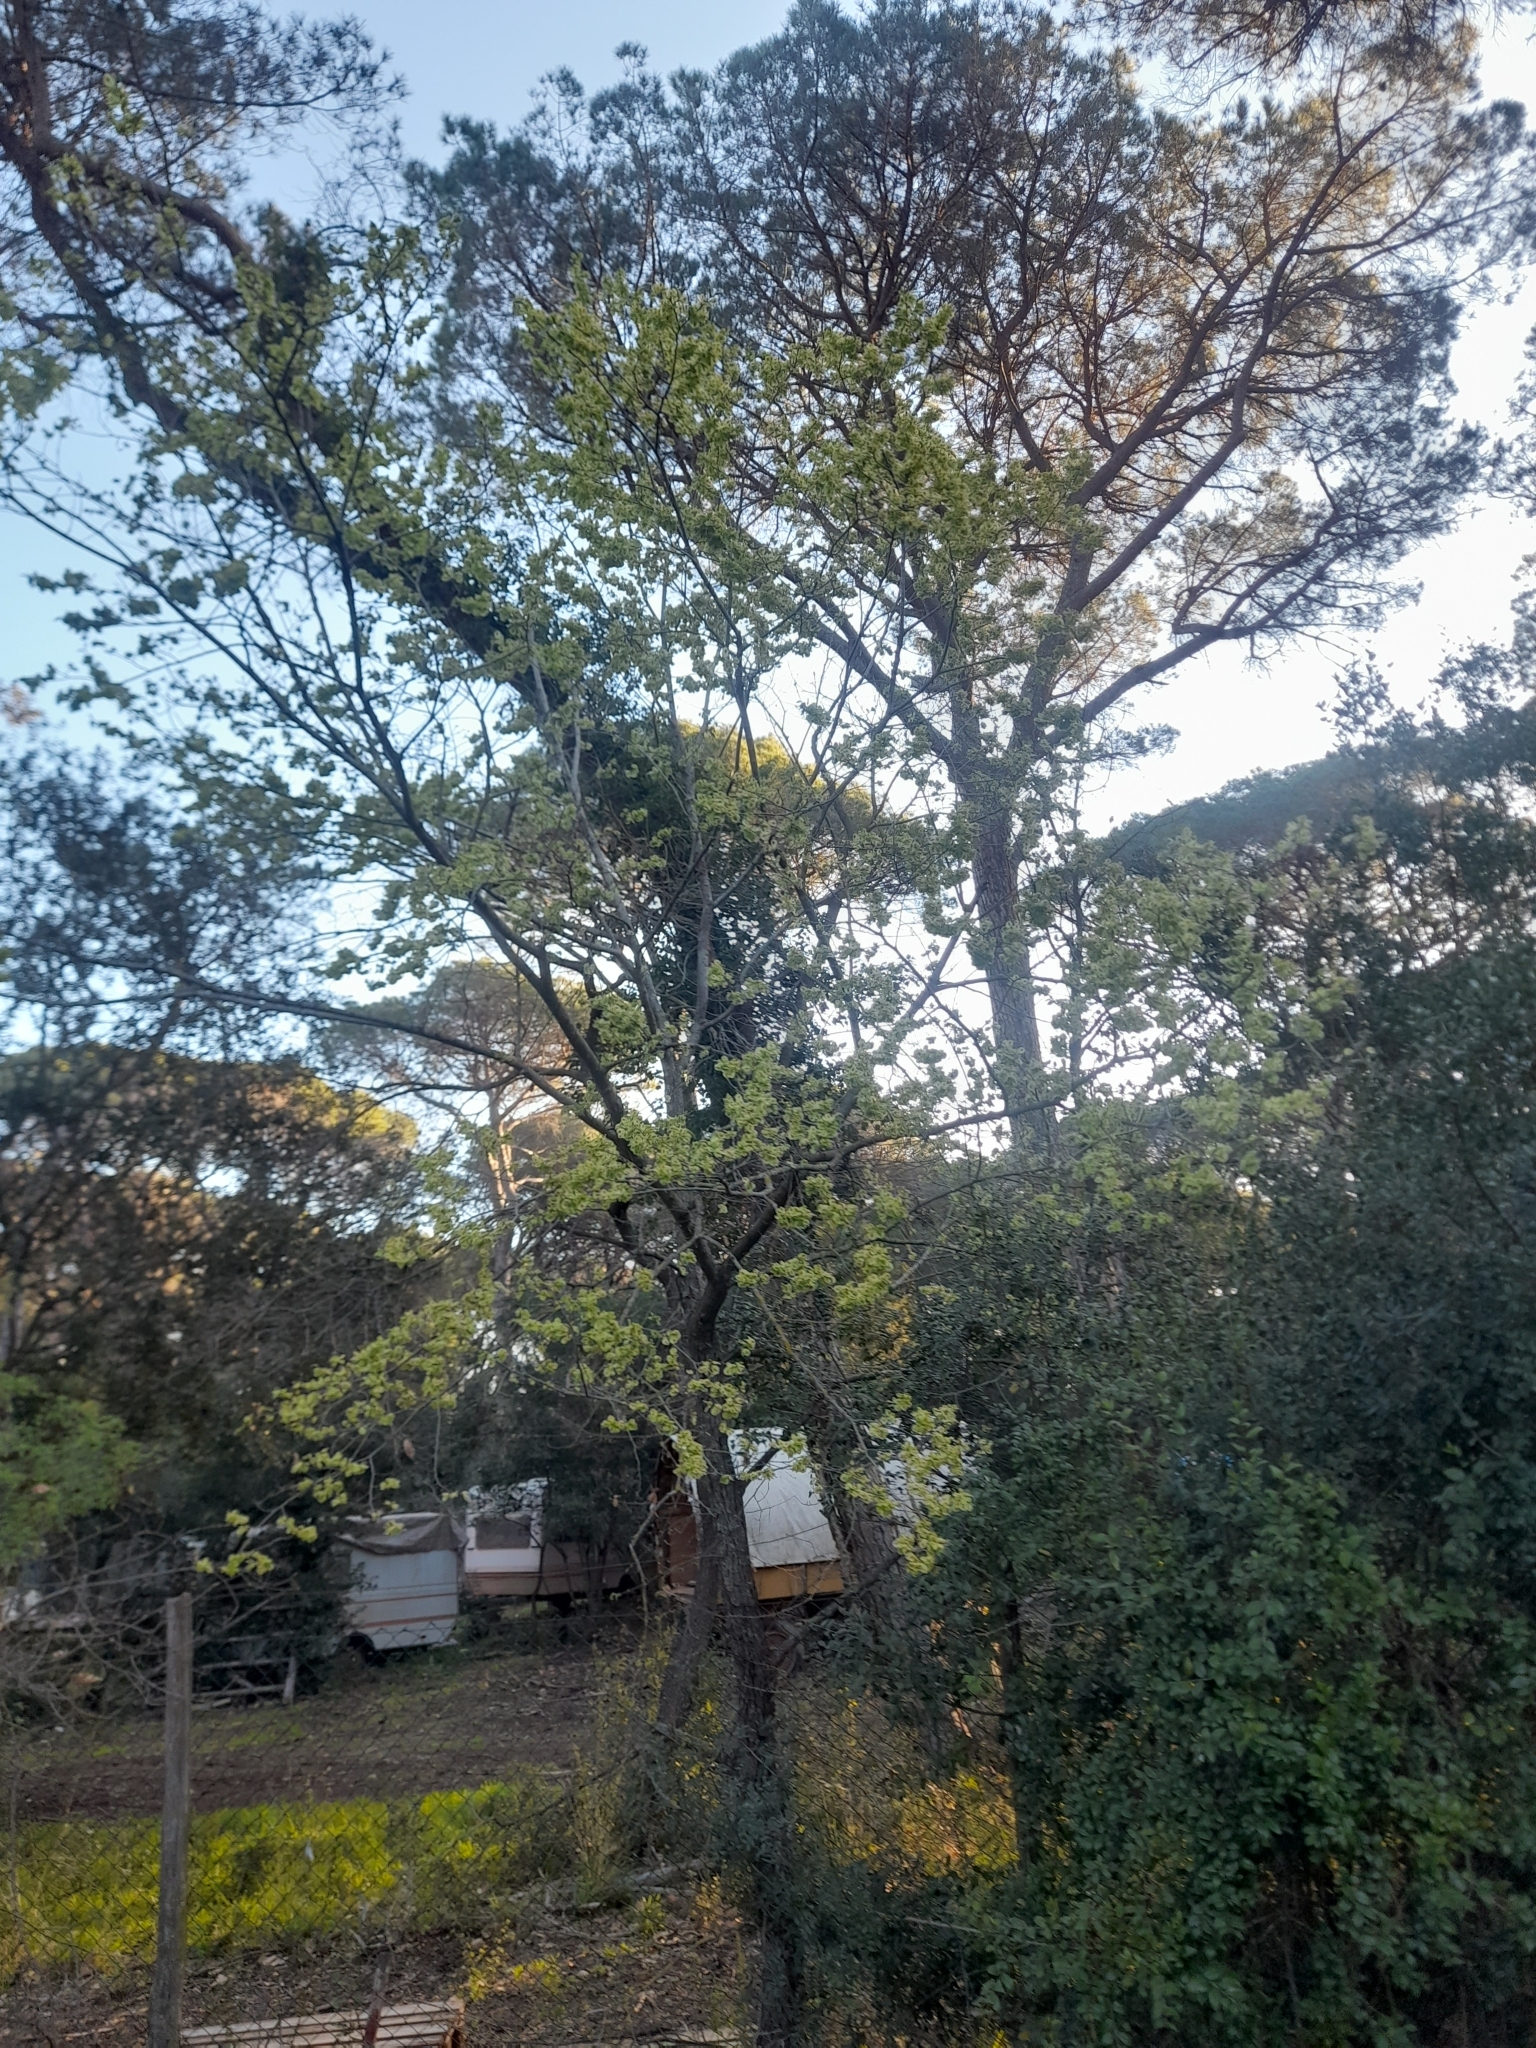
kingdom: Plantae
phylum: Tracheophyta
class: Magnoliopsida
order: Rosales
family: Ulmaceae
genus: Ulmus
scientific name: Ulmus minor
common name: Small-leaved elm
